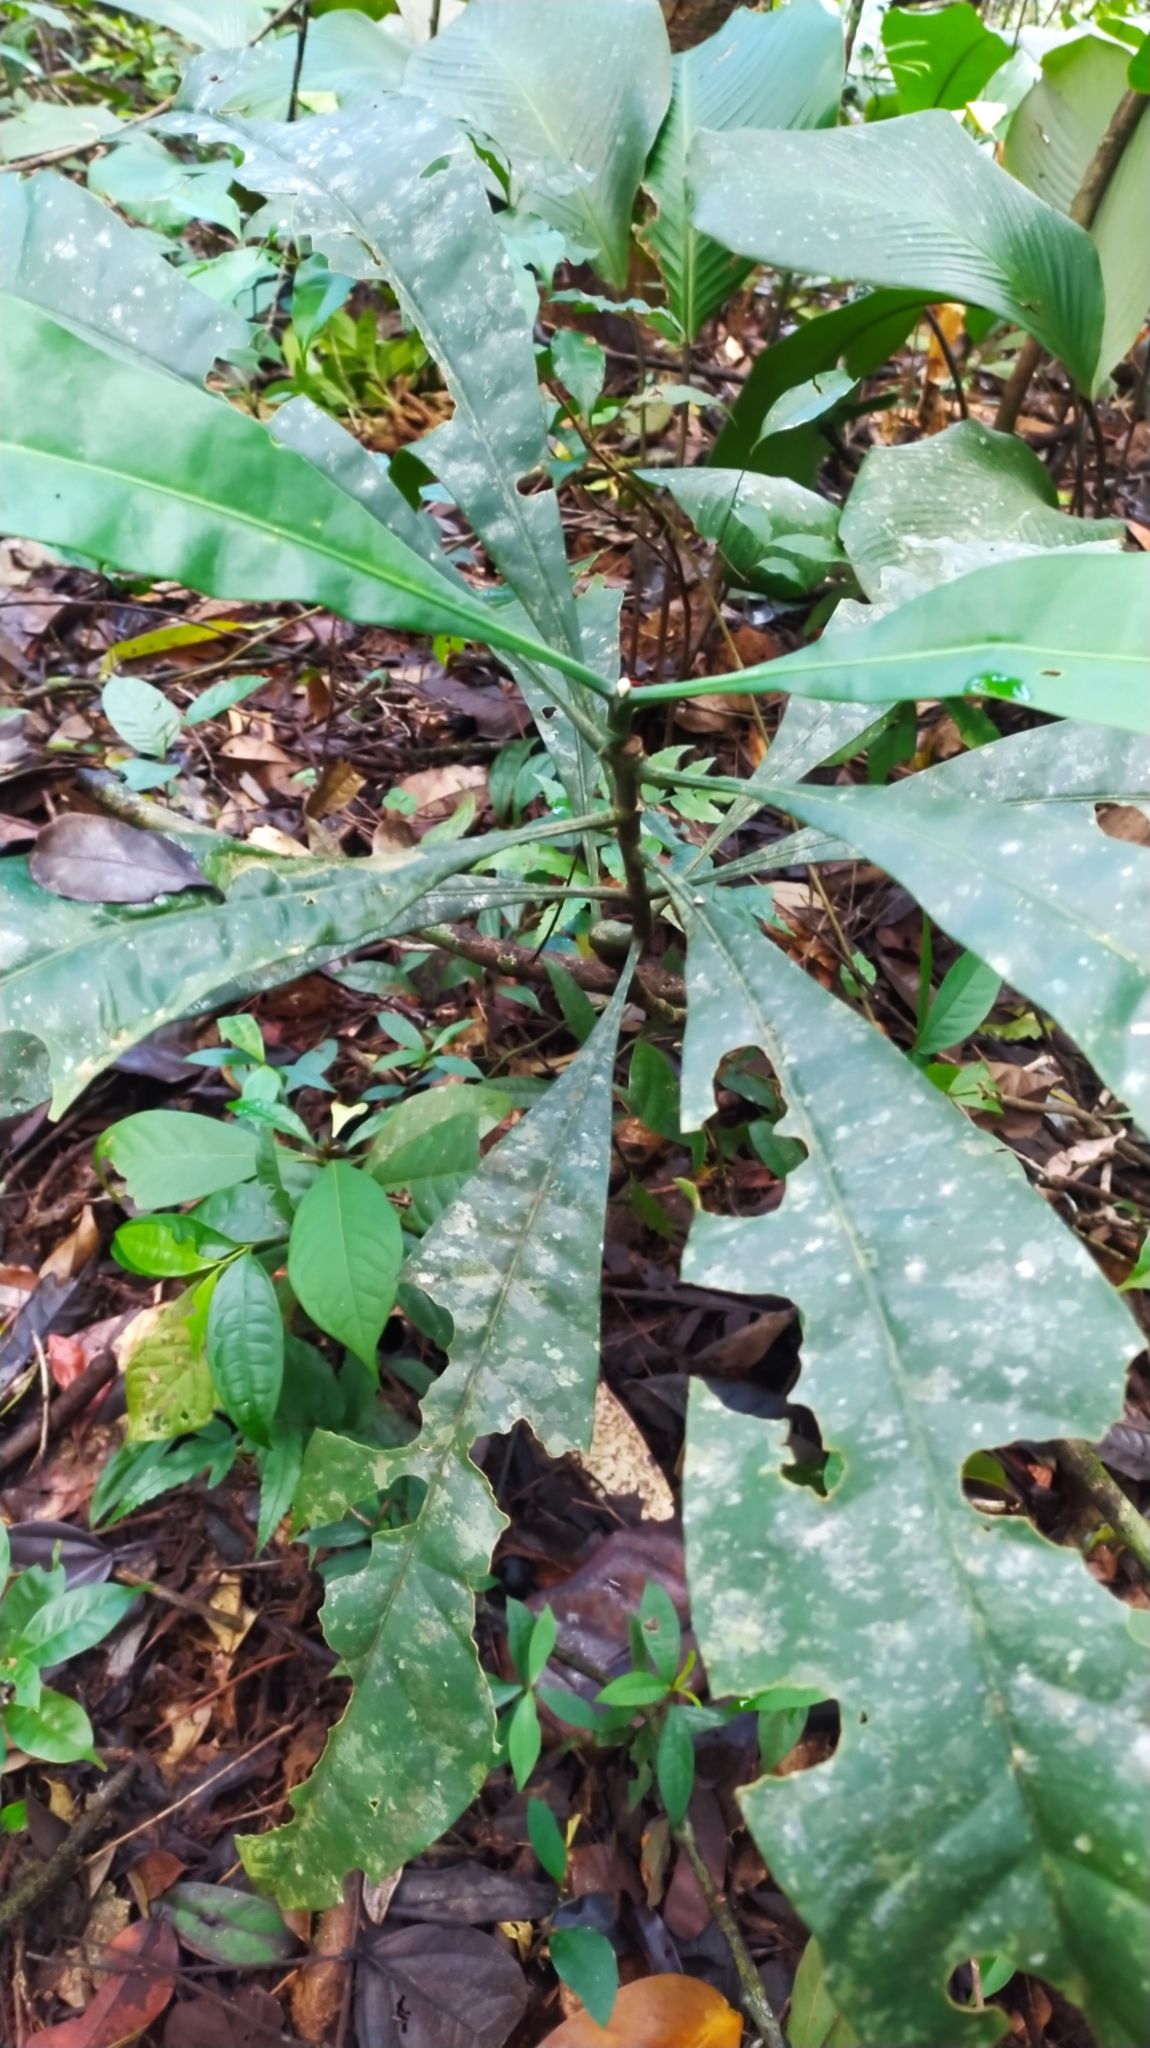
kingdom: Plantae
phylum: Tracheophyta
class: Magnoliopsida
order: Gentianales
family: Gentianaceae
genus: Potalia
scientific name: Potalia amara
